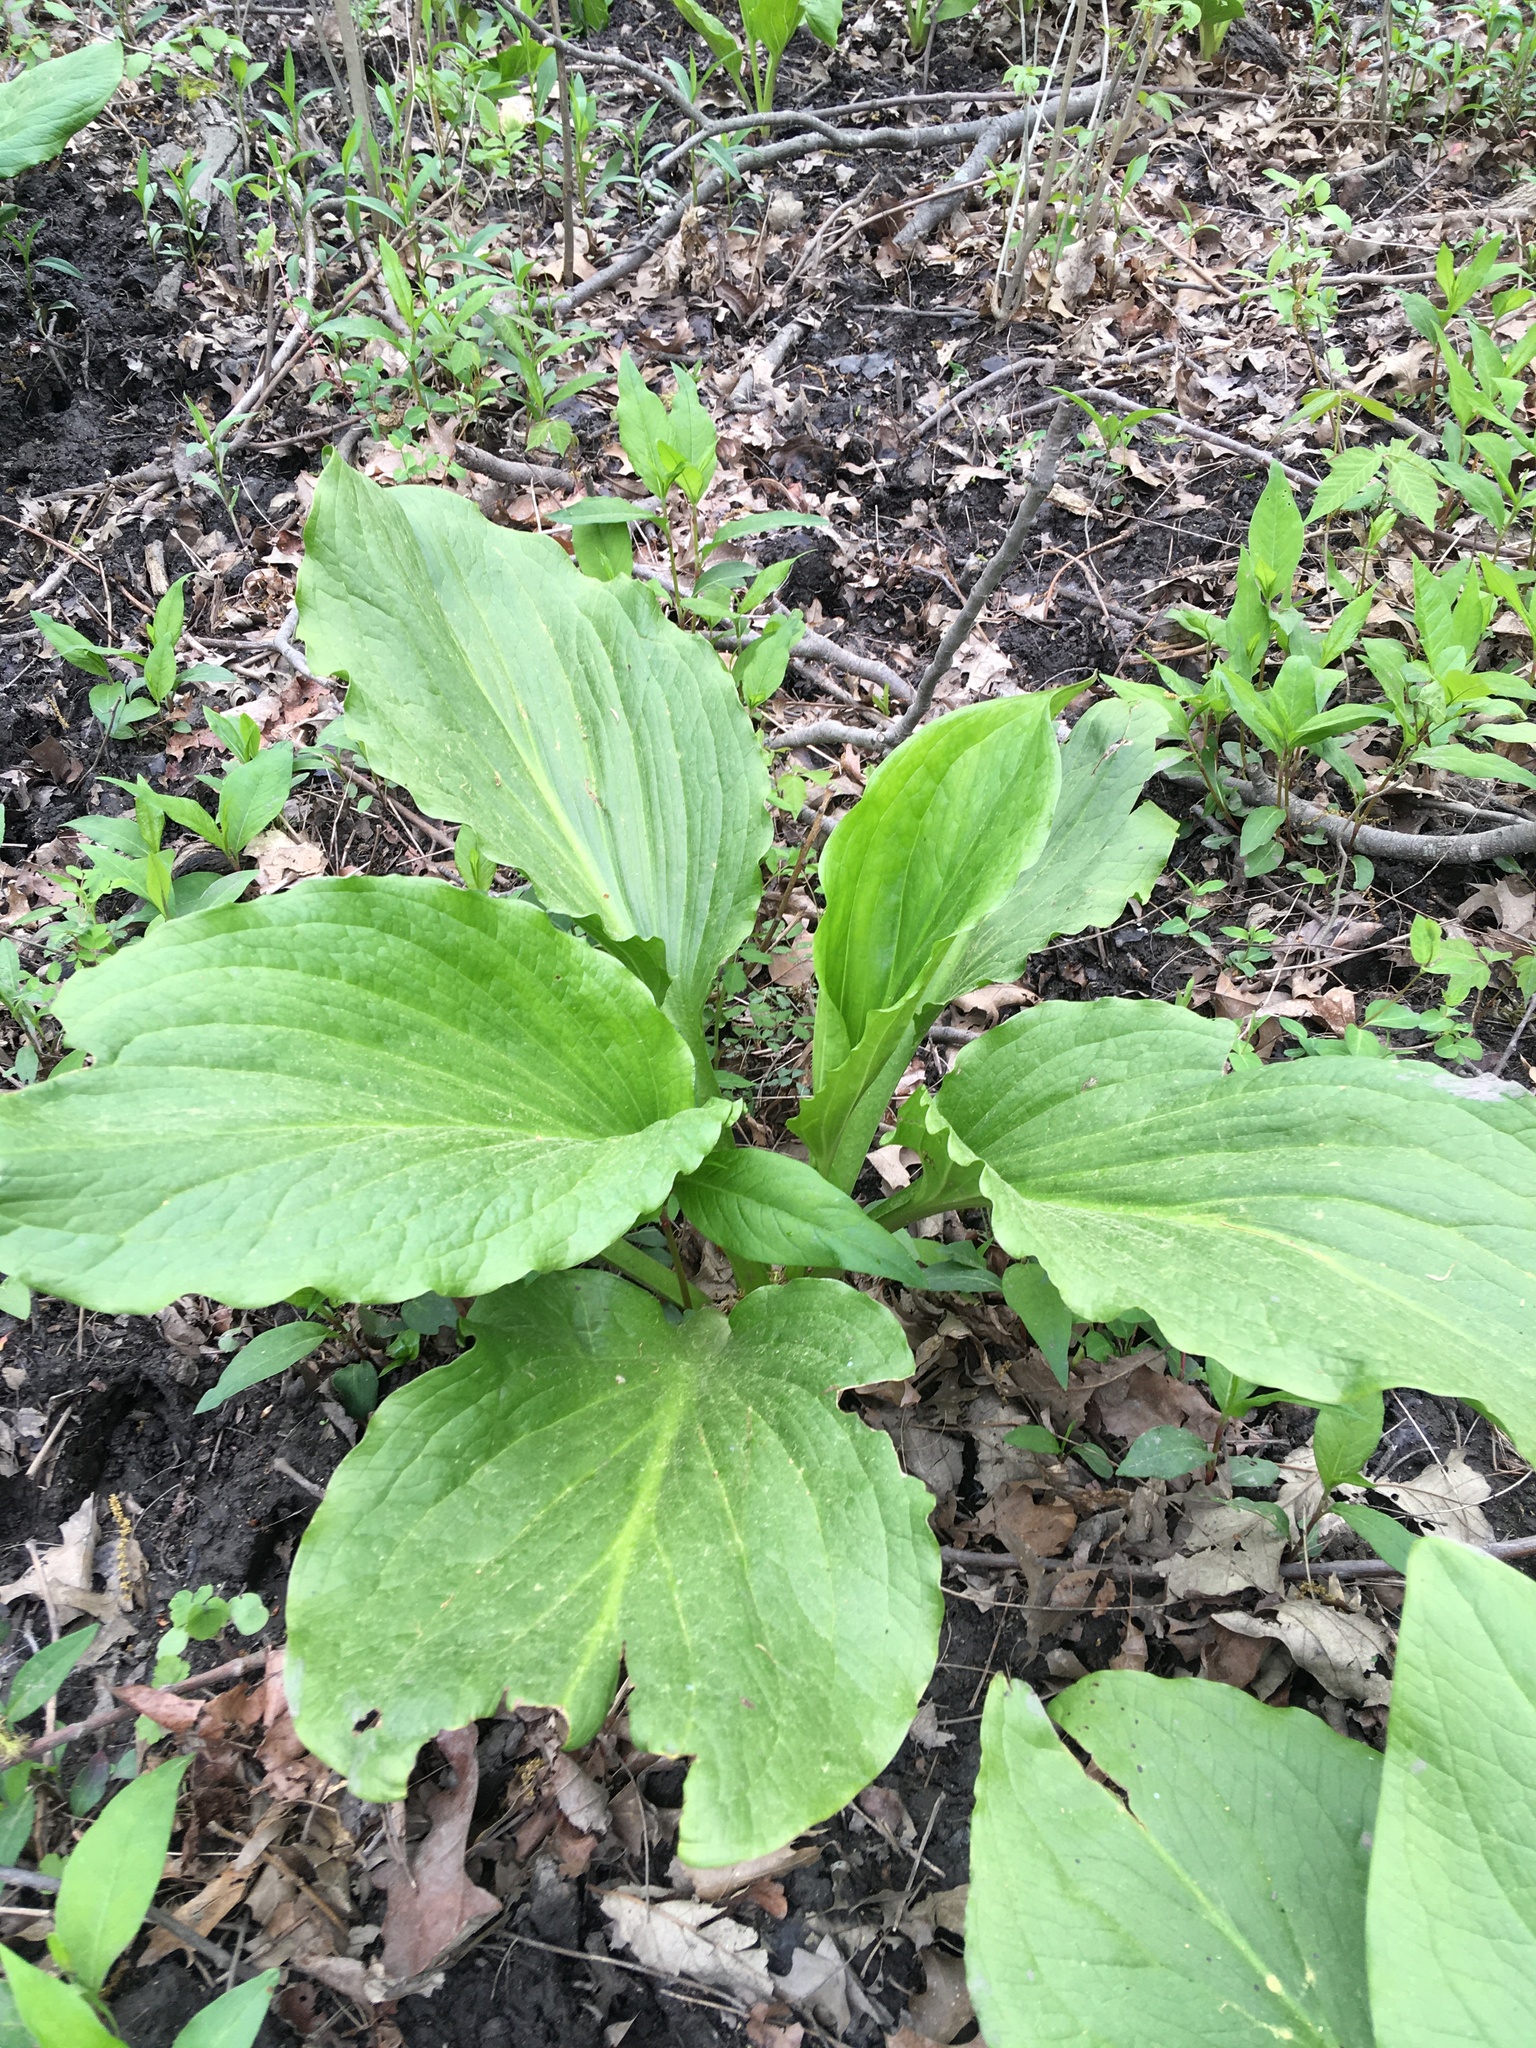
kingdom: Plantae
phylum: Tracheophyta
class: Liliopsida
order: Alismatales
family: Araceae
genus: Symplocarpus
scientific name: Symplocarpus foetidus
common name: Eastern skunk cabbage
